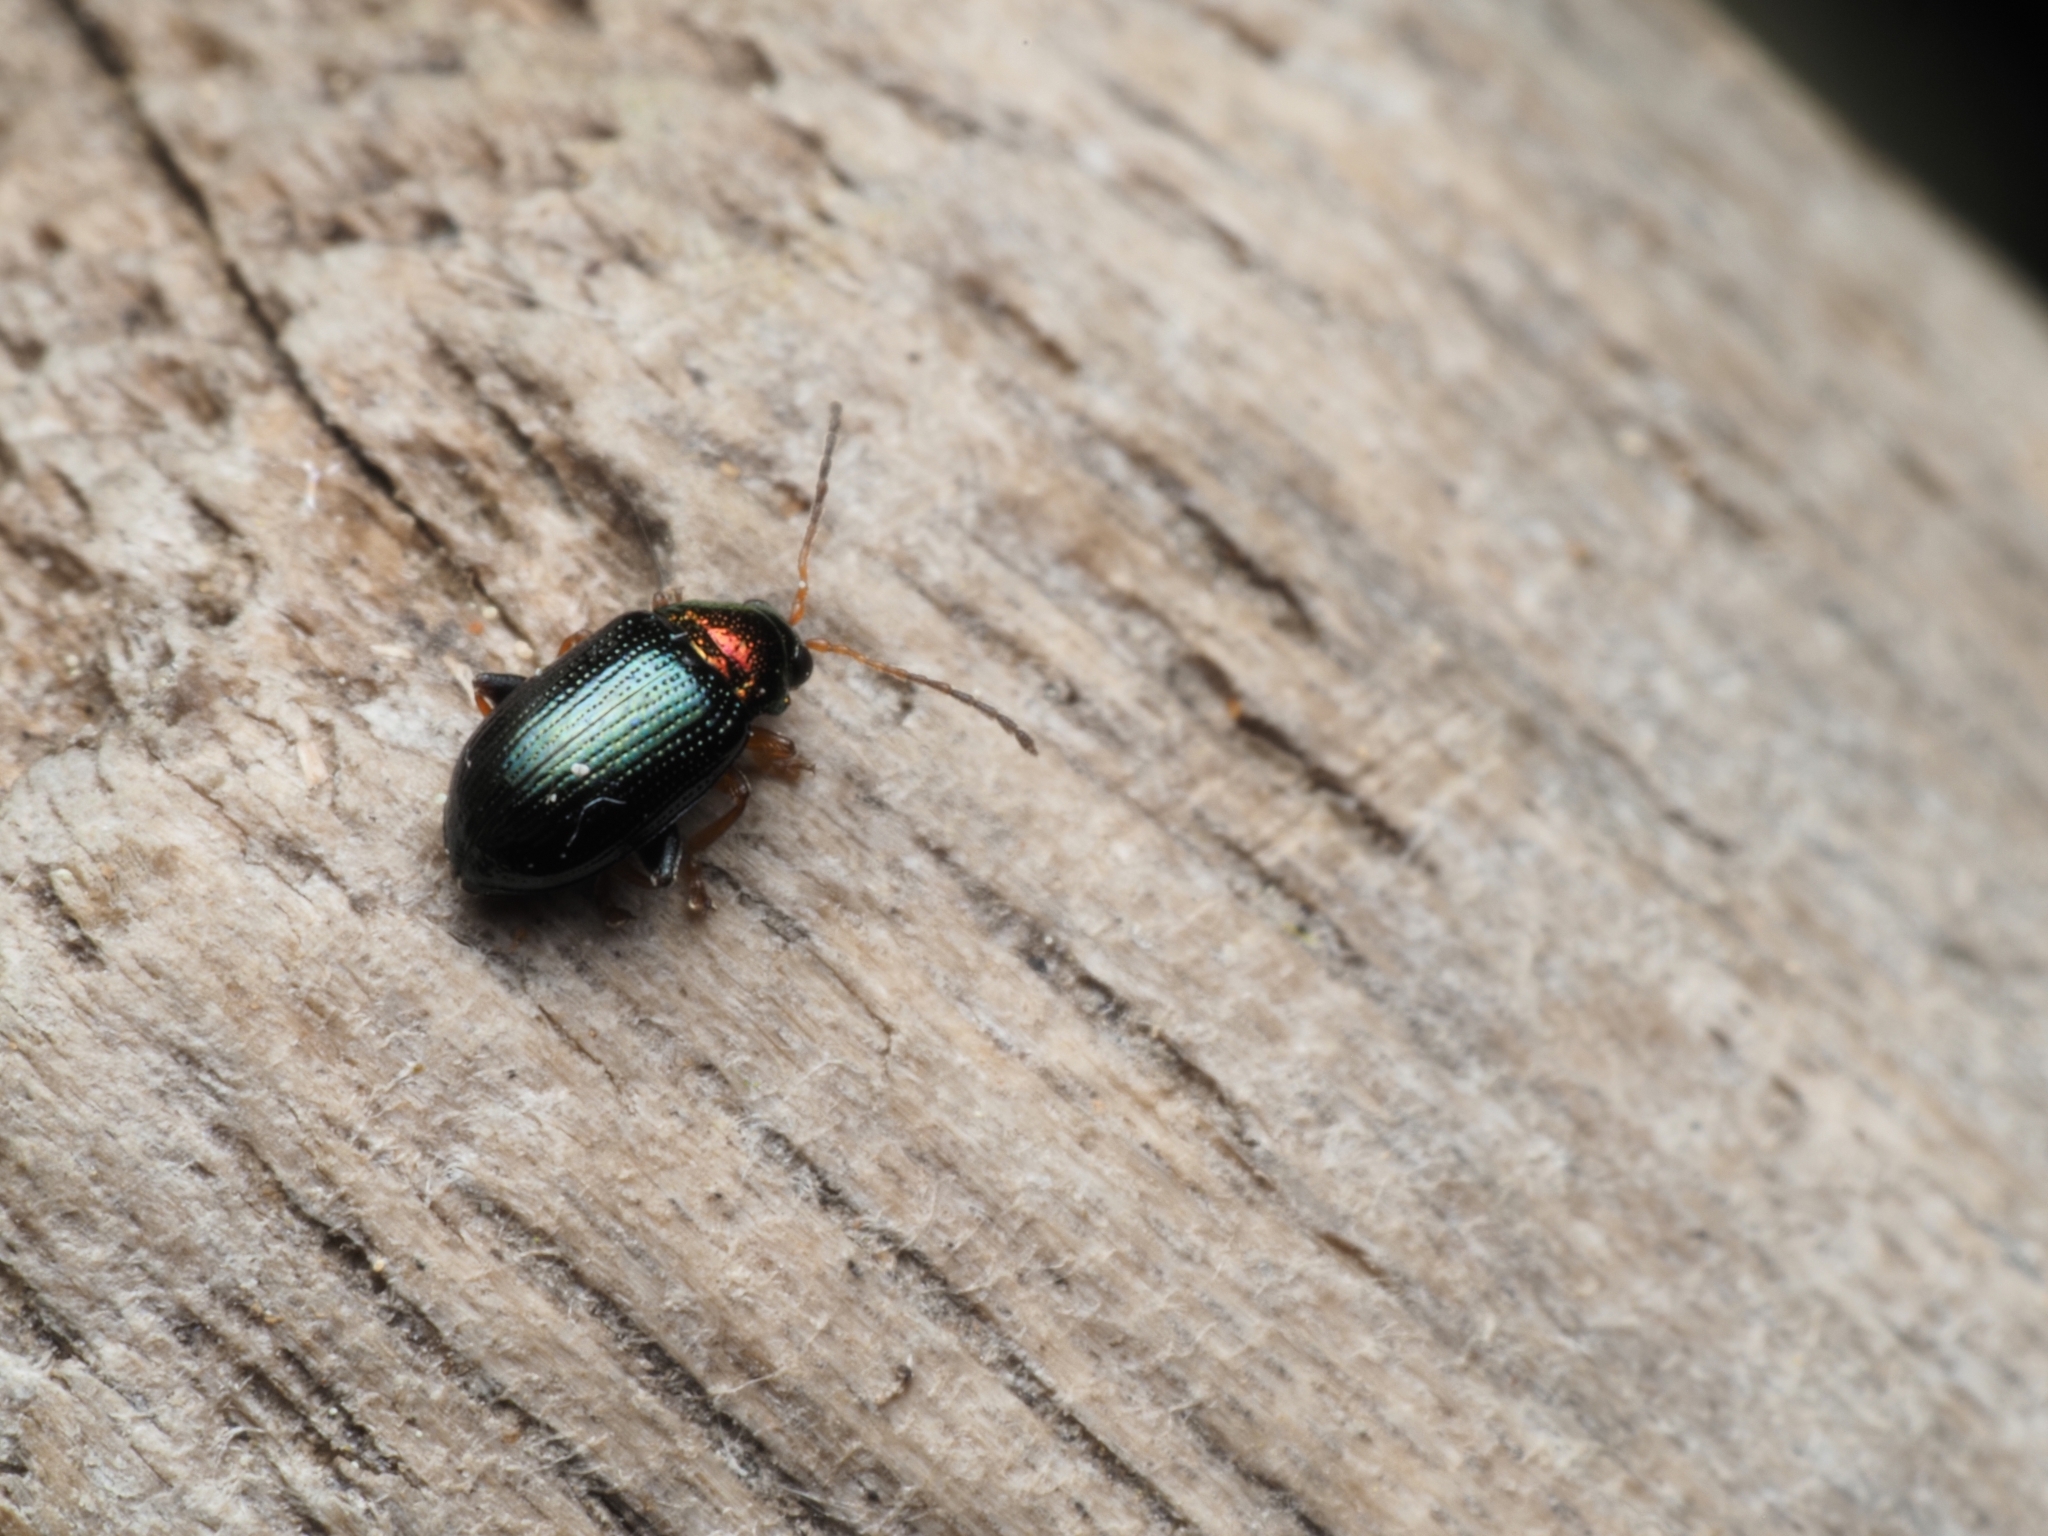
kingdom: Animalia
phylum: Arthropoda
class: Insecta
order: Coleoptera
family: Chrysomelidae
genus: Crepidodera
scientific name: Crepidodera aurata
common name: Willow flea beetle
